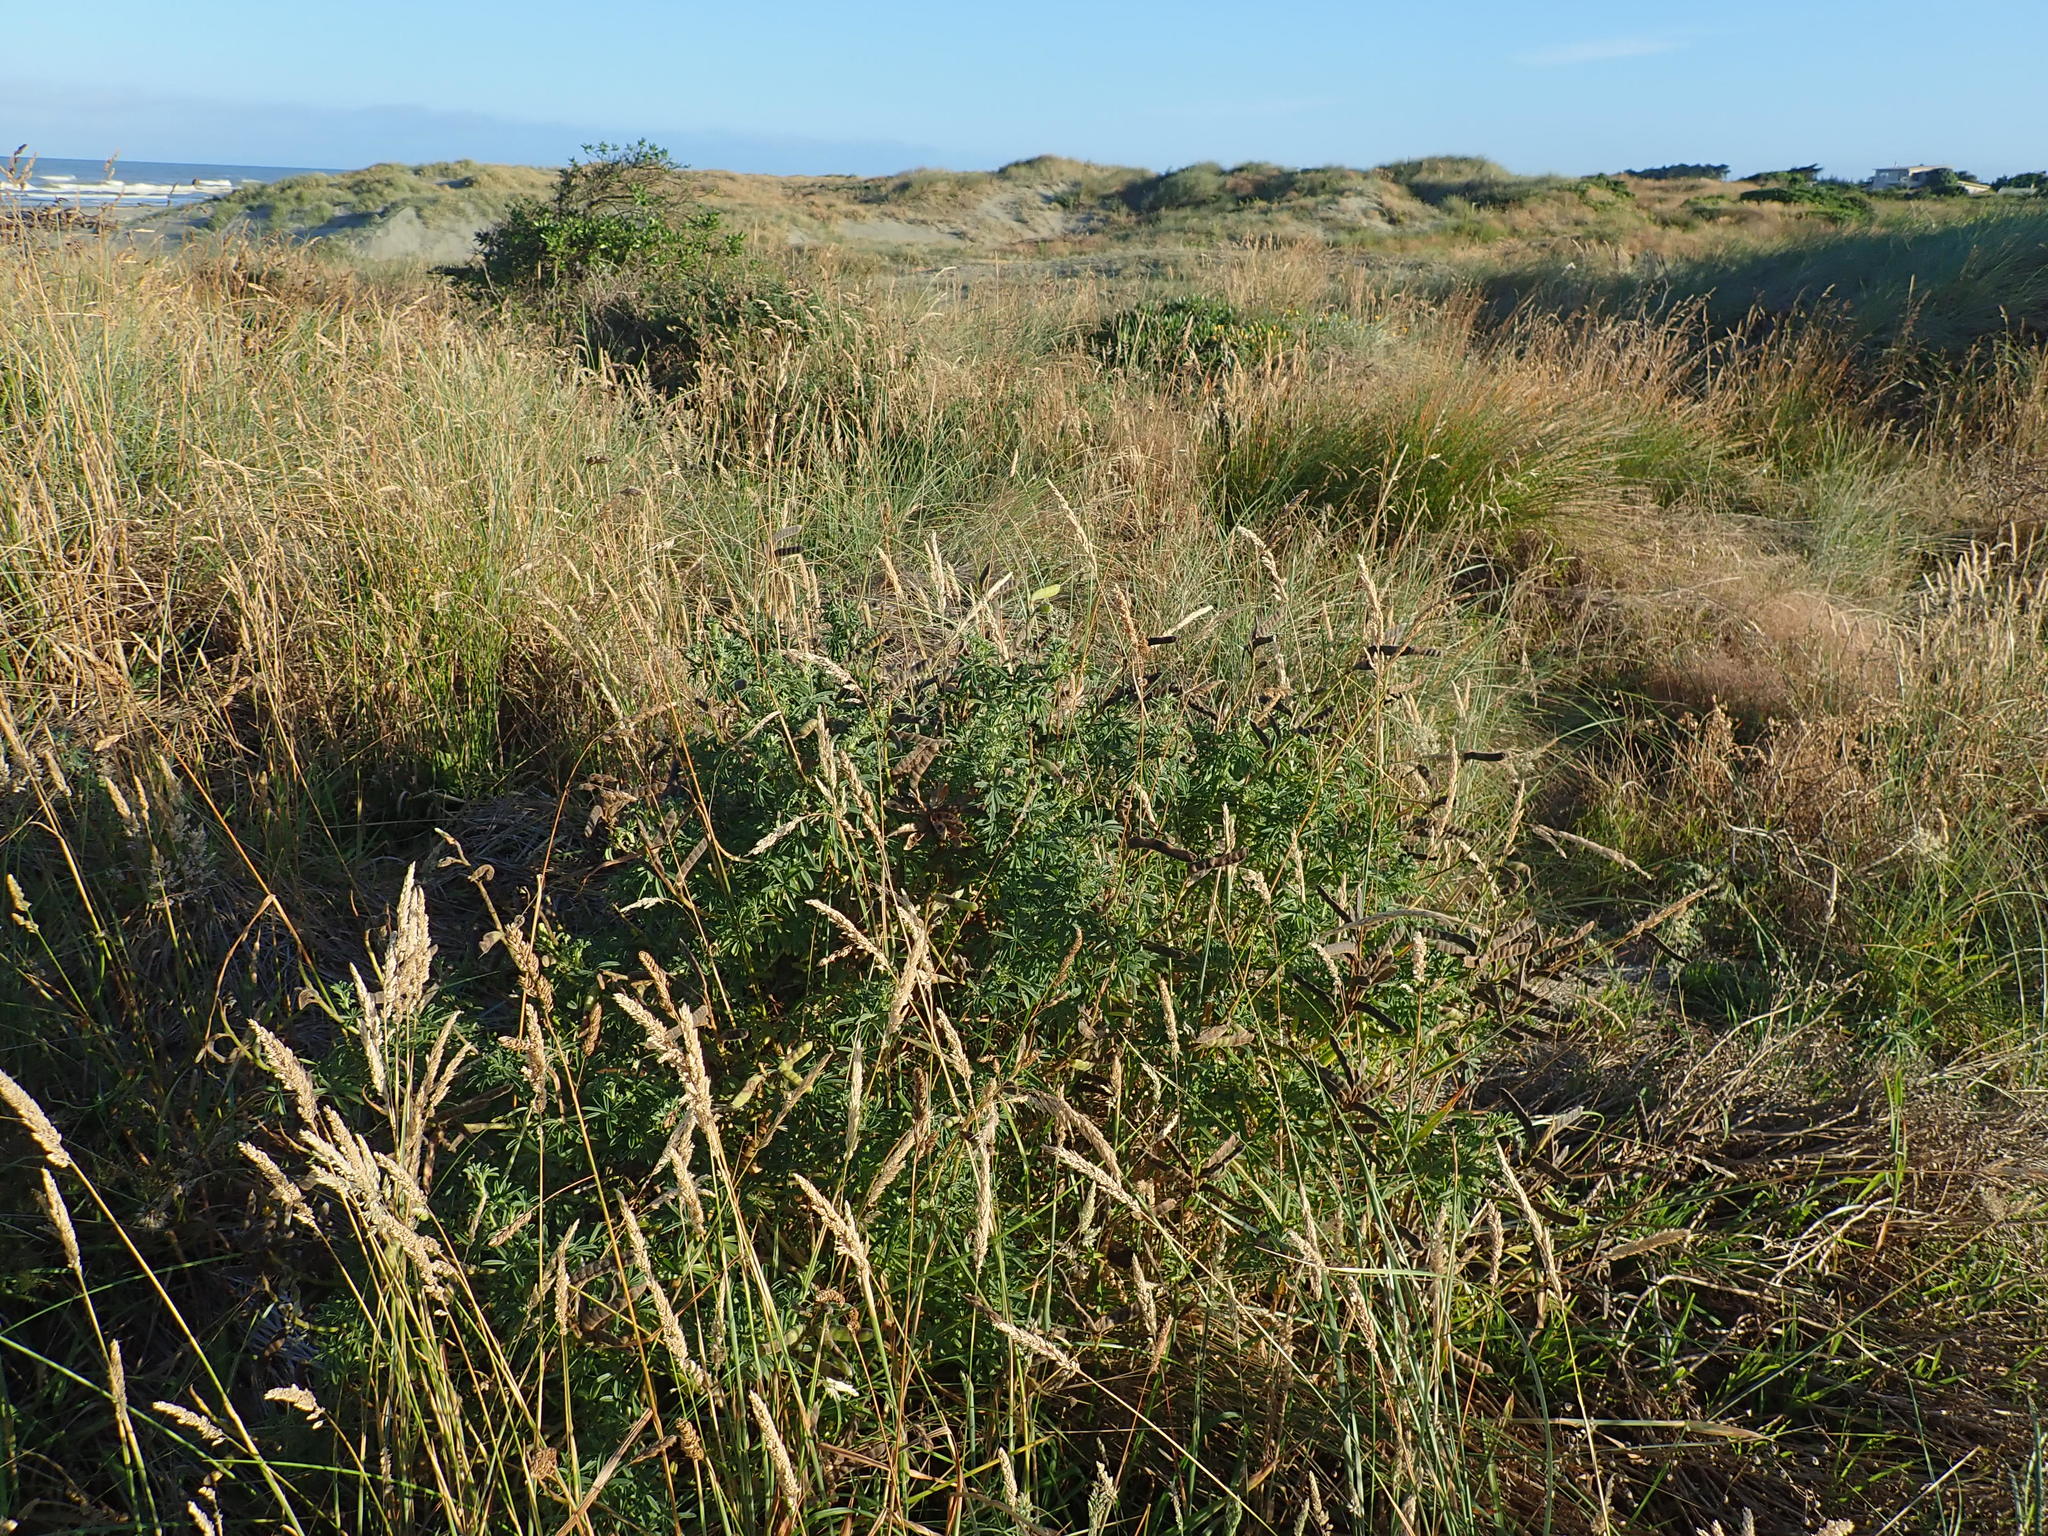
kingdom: Plantae
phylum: Tracheophyta
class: Magnoliopsida
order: Fabales
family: Fabaceae
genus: Lupinus
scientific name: Lupinus arboreus
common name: Yellow bush lupine
